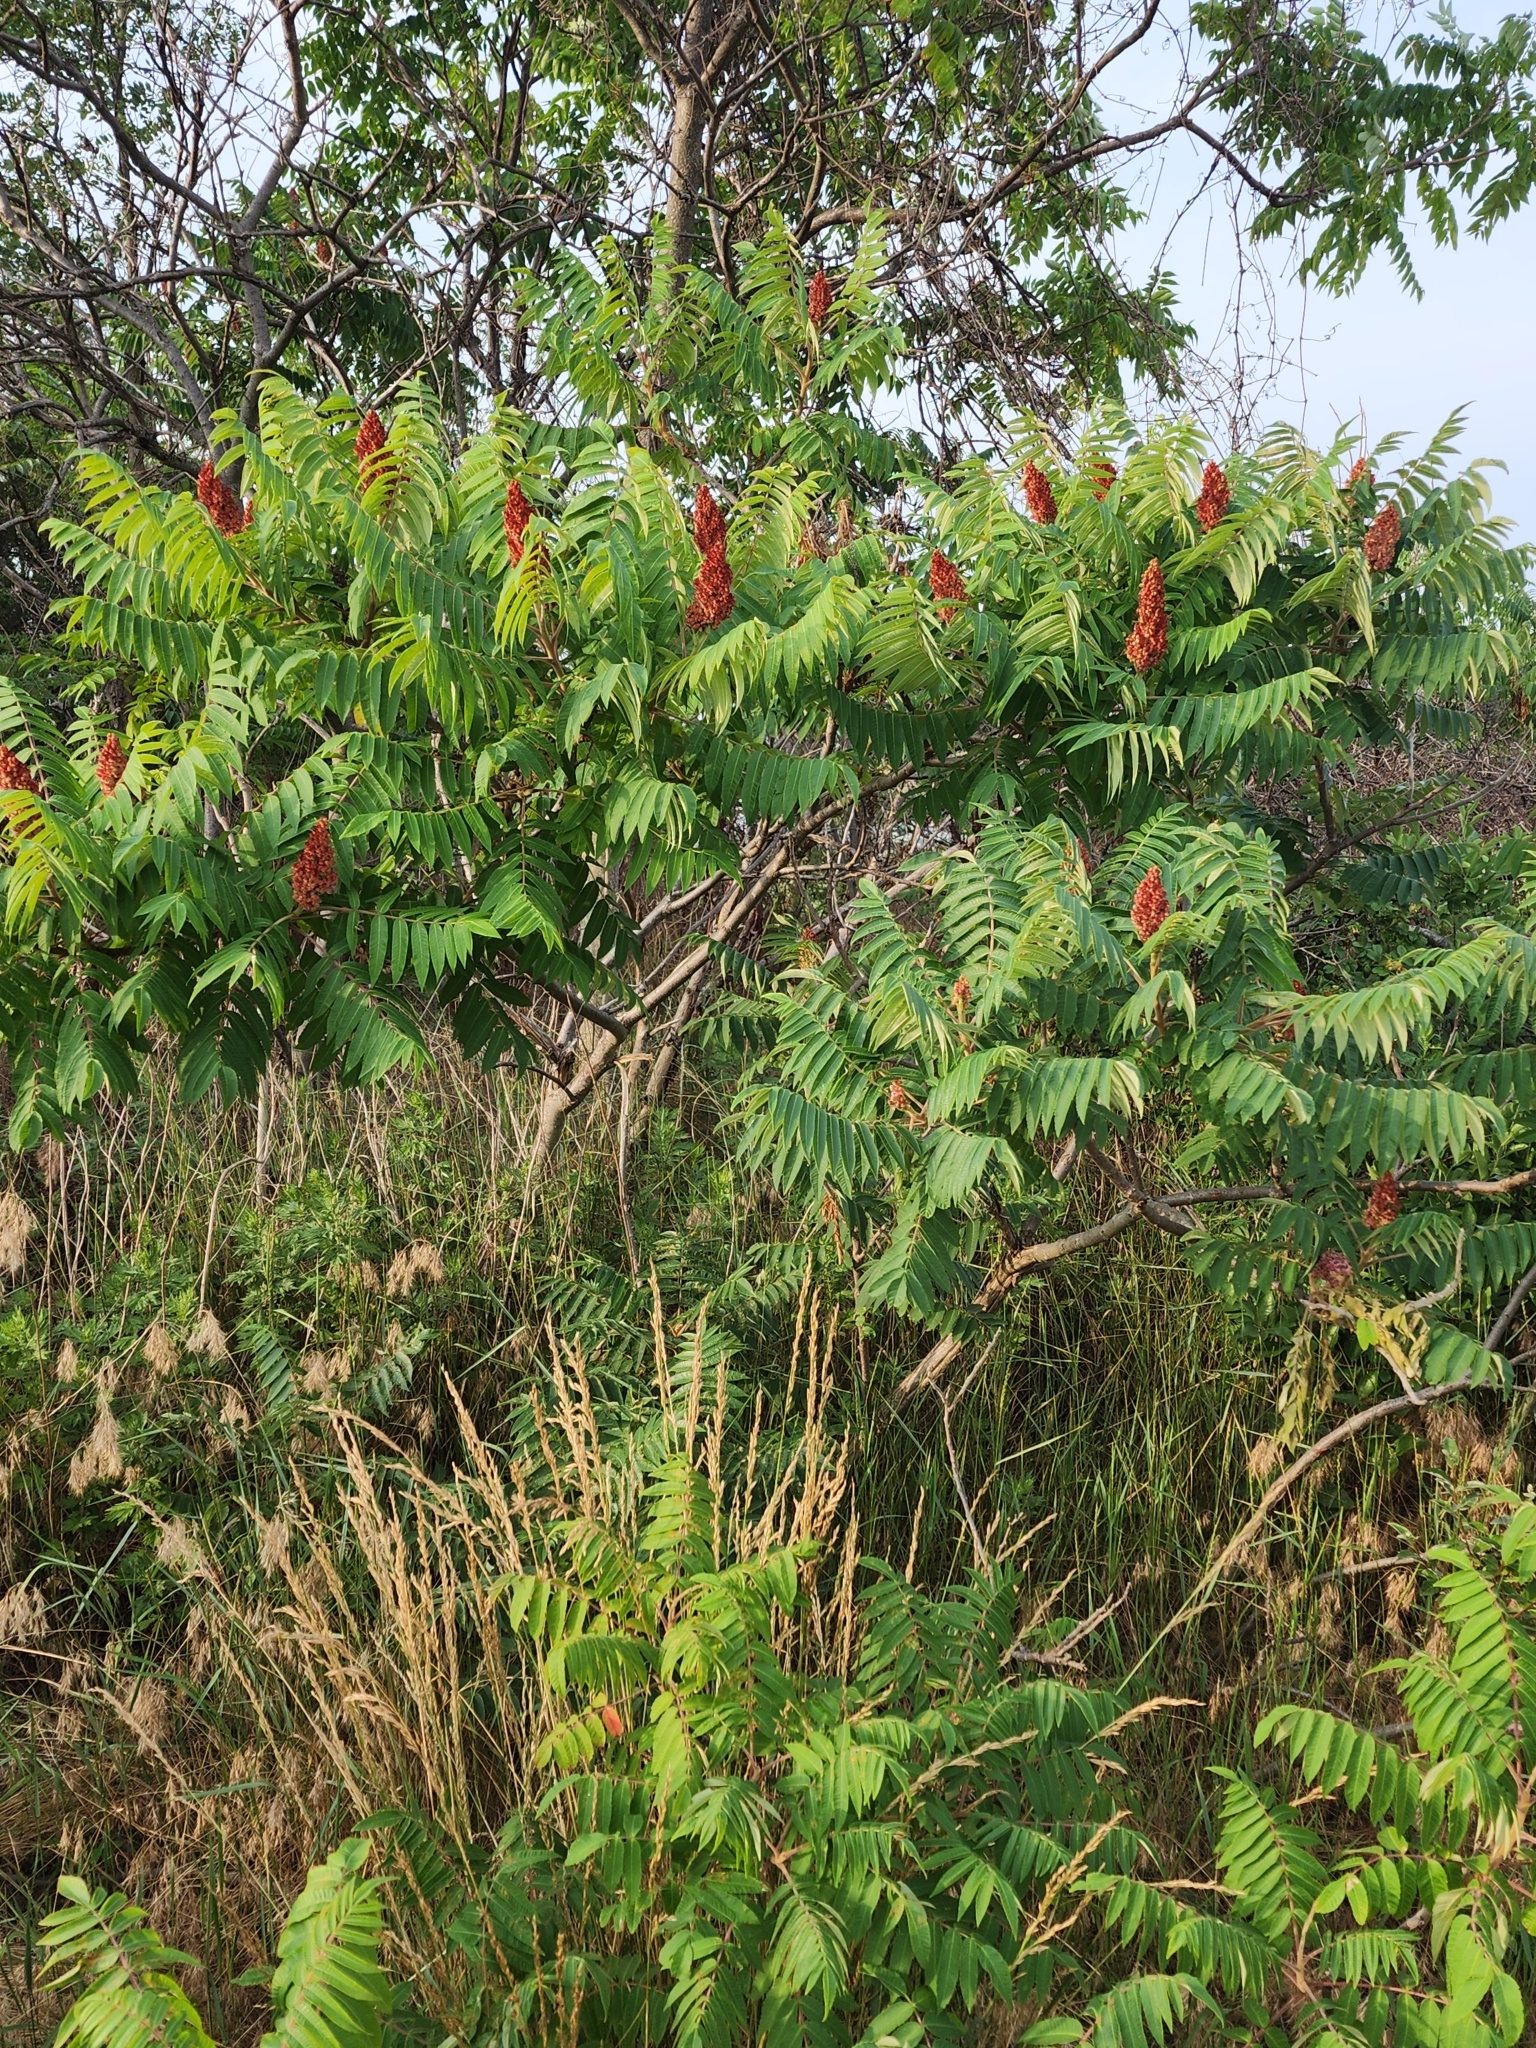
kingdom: Plantae
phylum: Tracheophyta
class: Magnoliopsida
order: Sapindales
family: Anacardiaceae
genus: Rhus
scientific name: Rhus typhina
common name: Staghorn sumac
